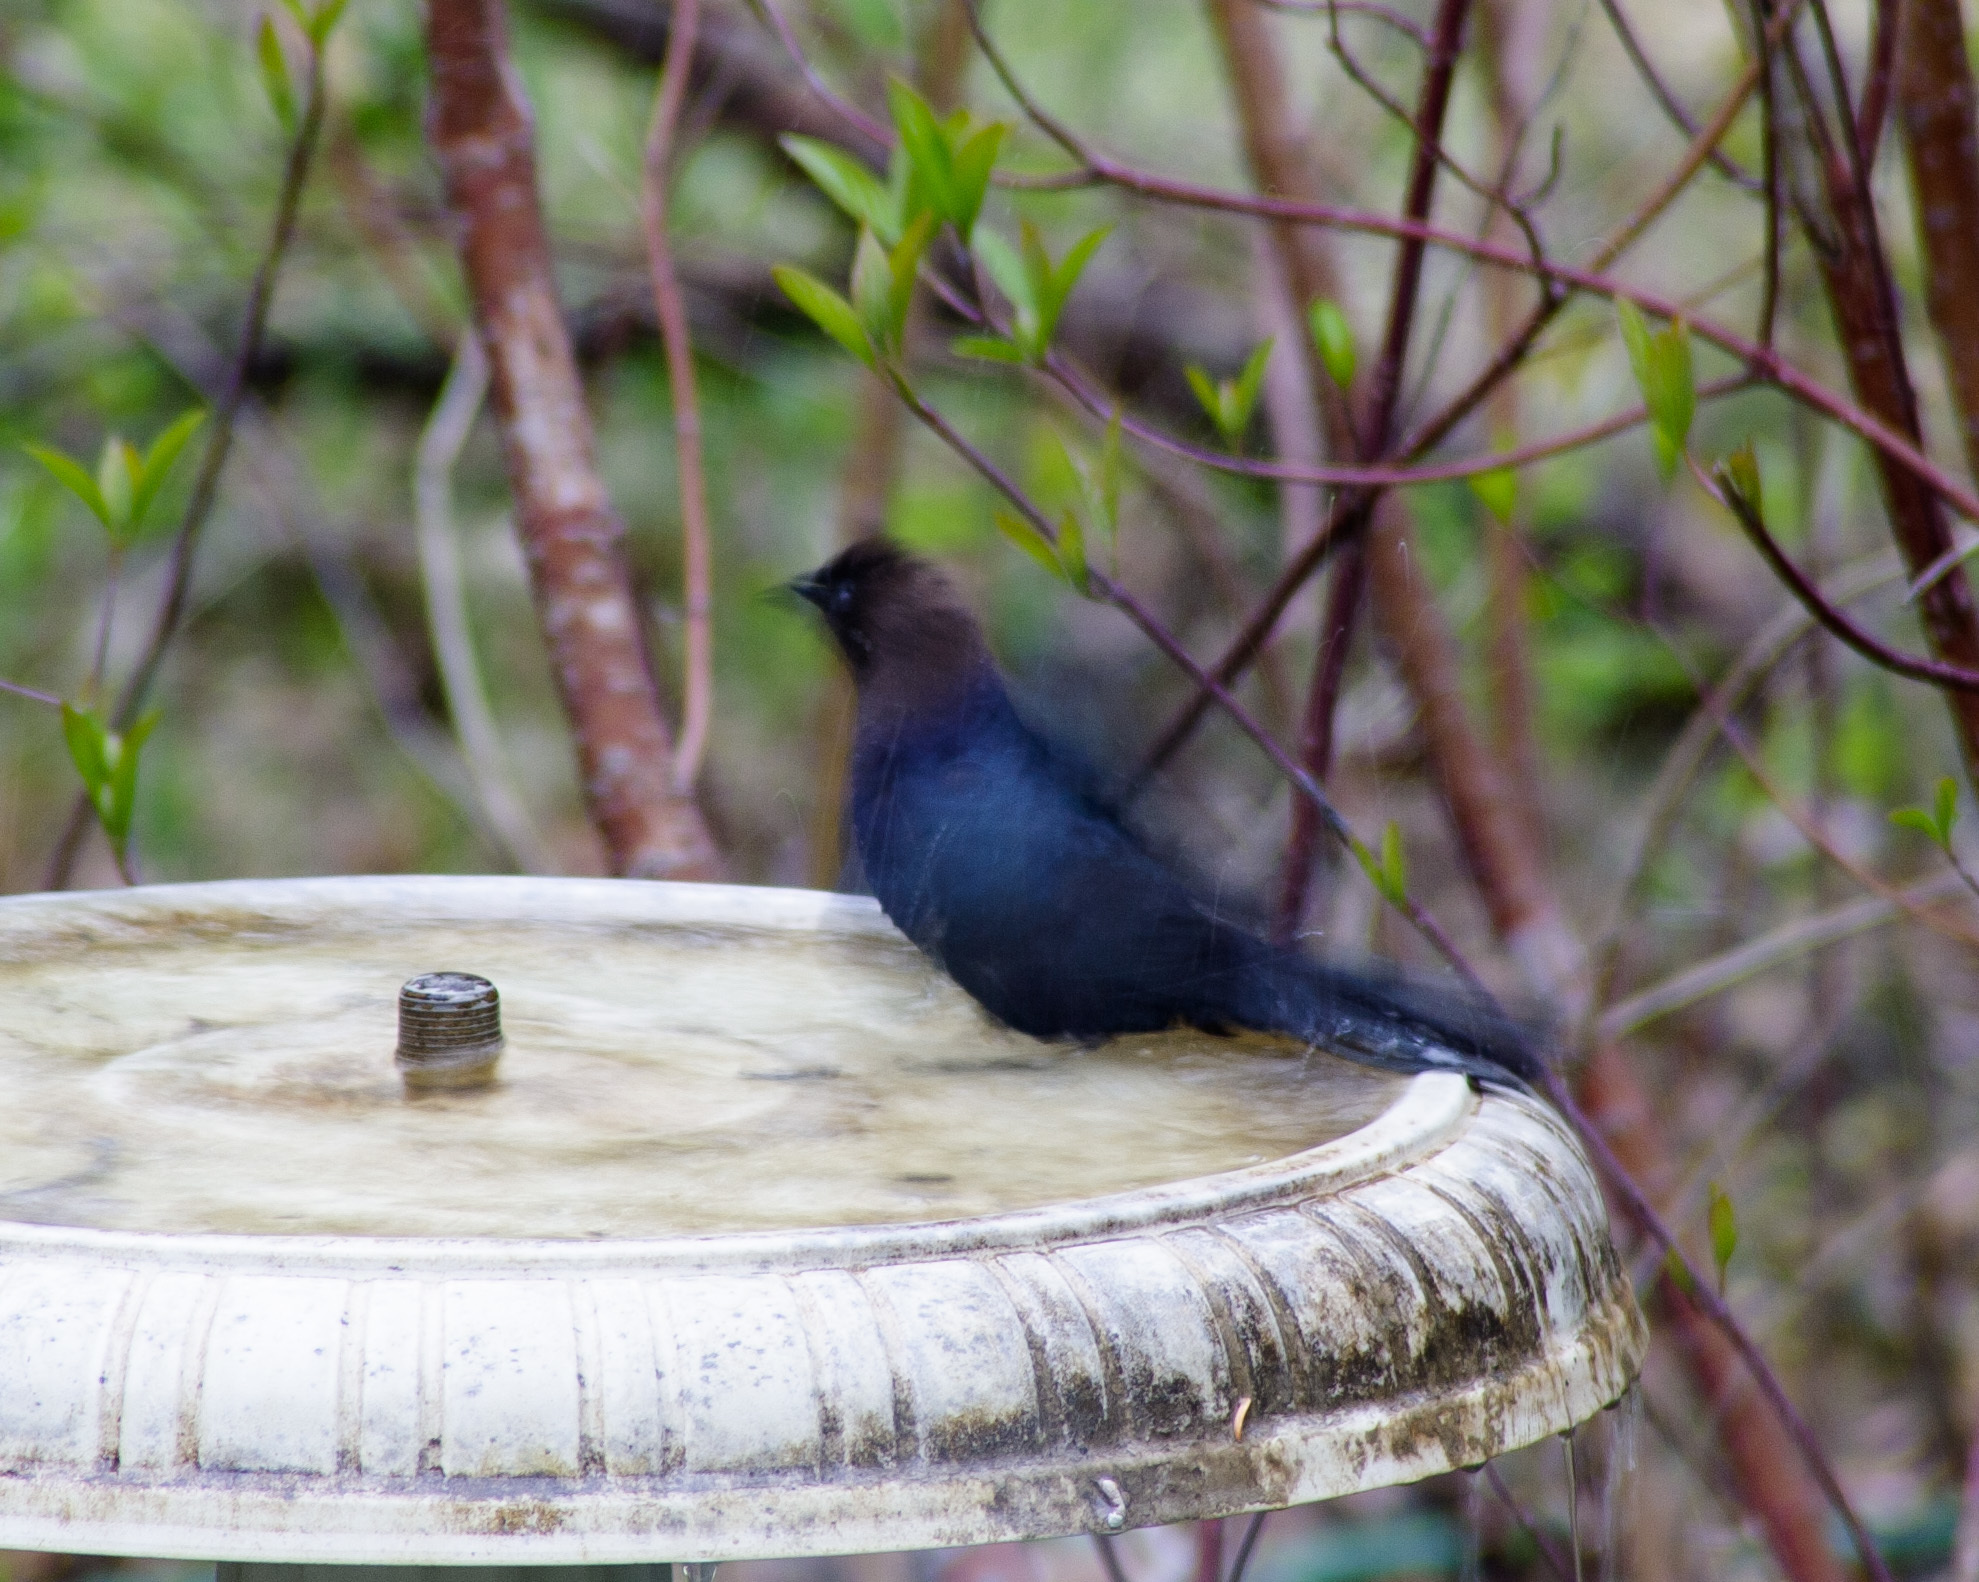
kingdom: Animalia
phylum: Chordata
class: Aves
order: Passeriformes
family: Icteridae
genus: Molothrus
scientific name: Molothrus ater
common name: Brown-headed cowbird
